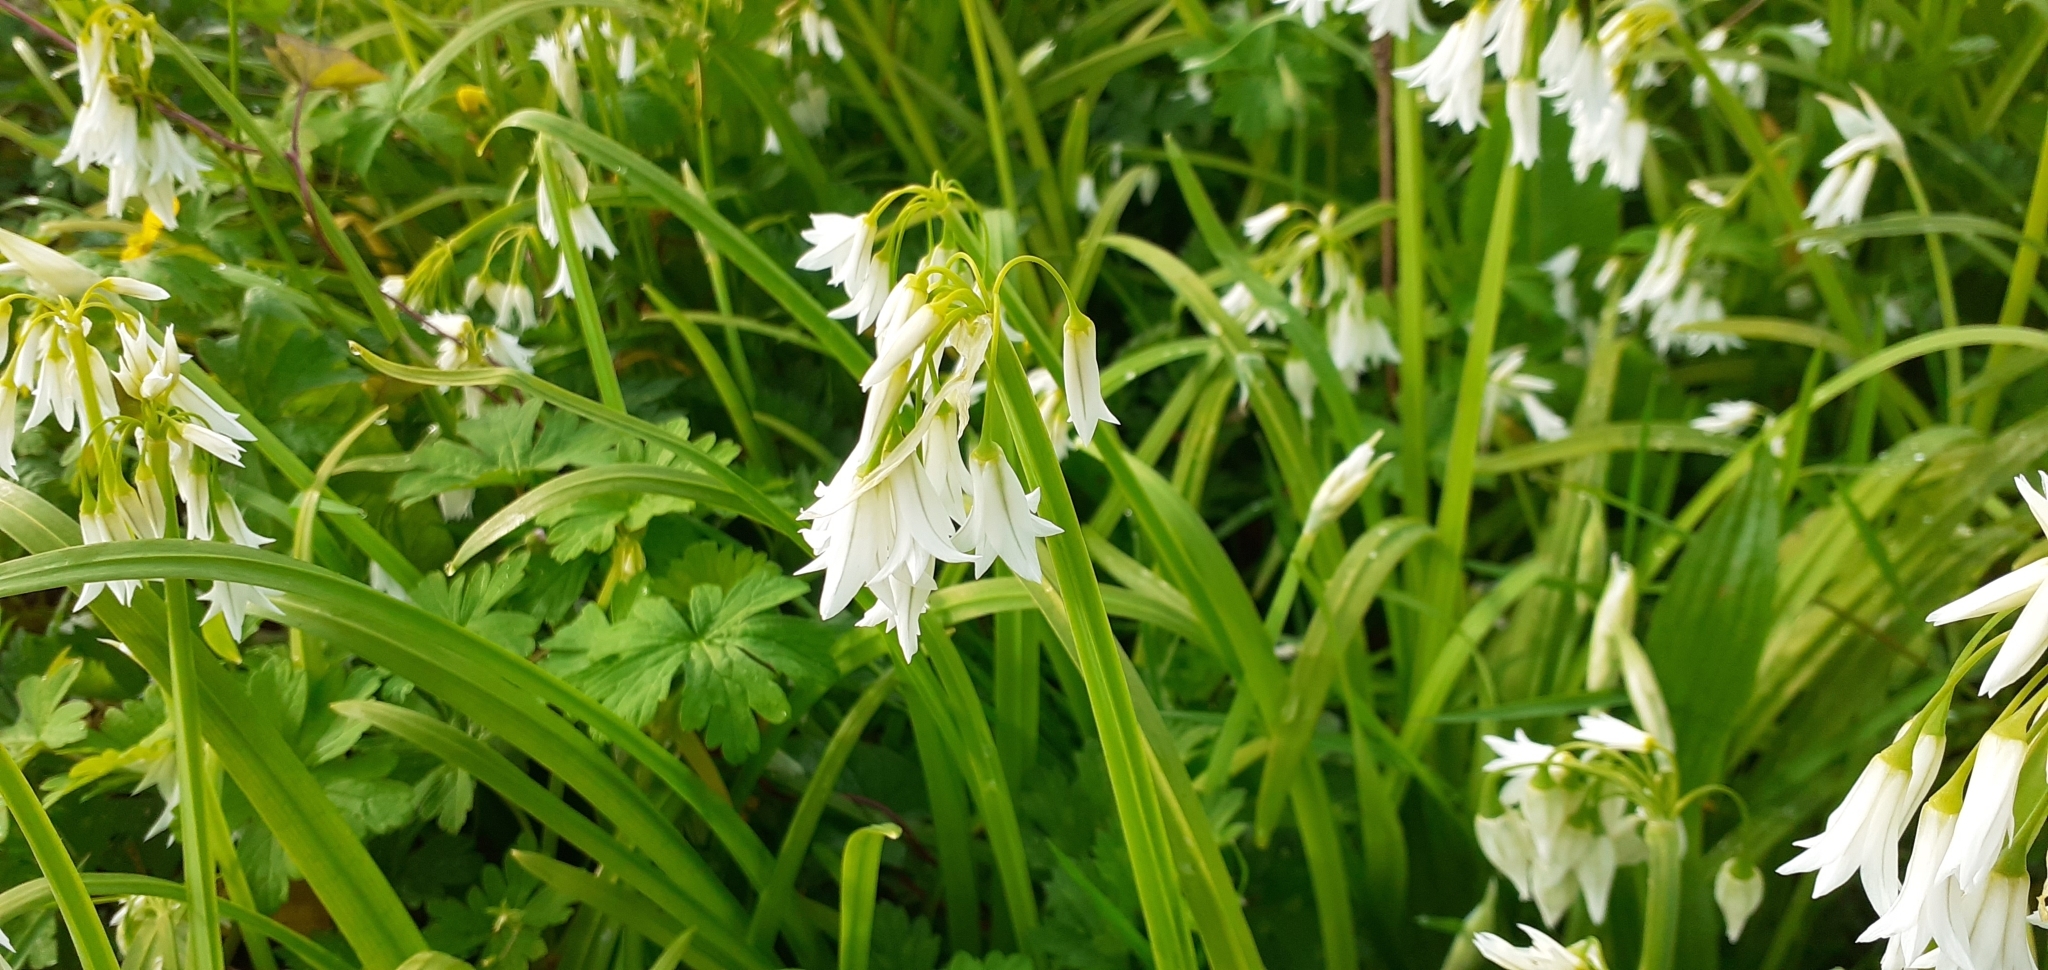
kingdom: Plantae
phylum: Tracheophyta
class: Liliopsida
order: Asparagales
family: Amaryllidaceae
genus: Allium
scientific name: Allium triquetrum
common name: Three-cornered garlic
